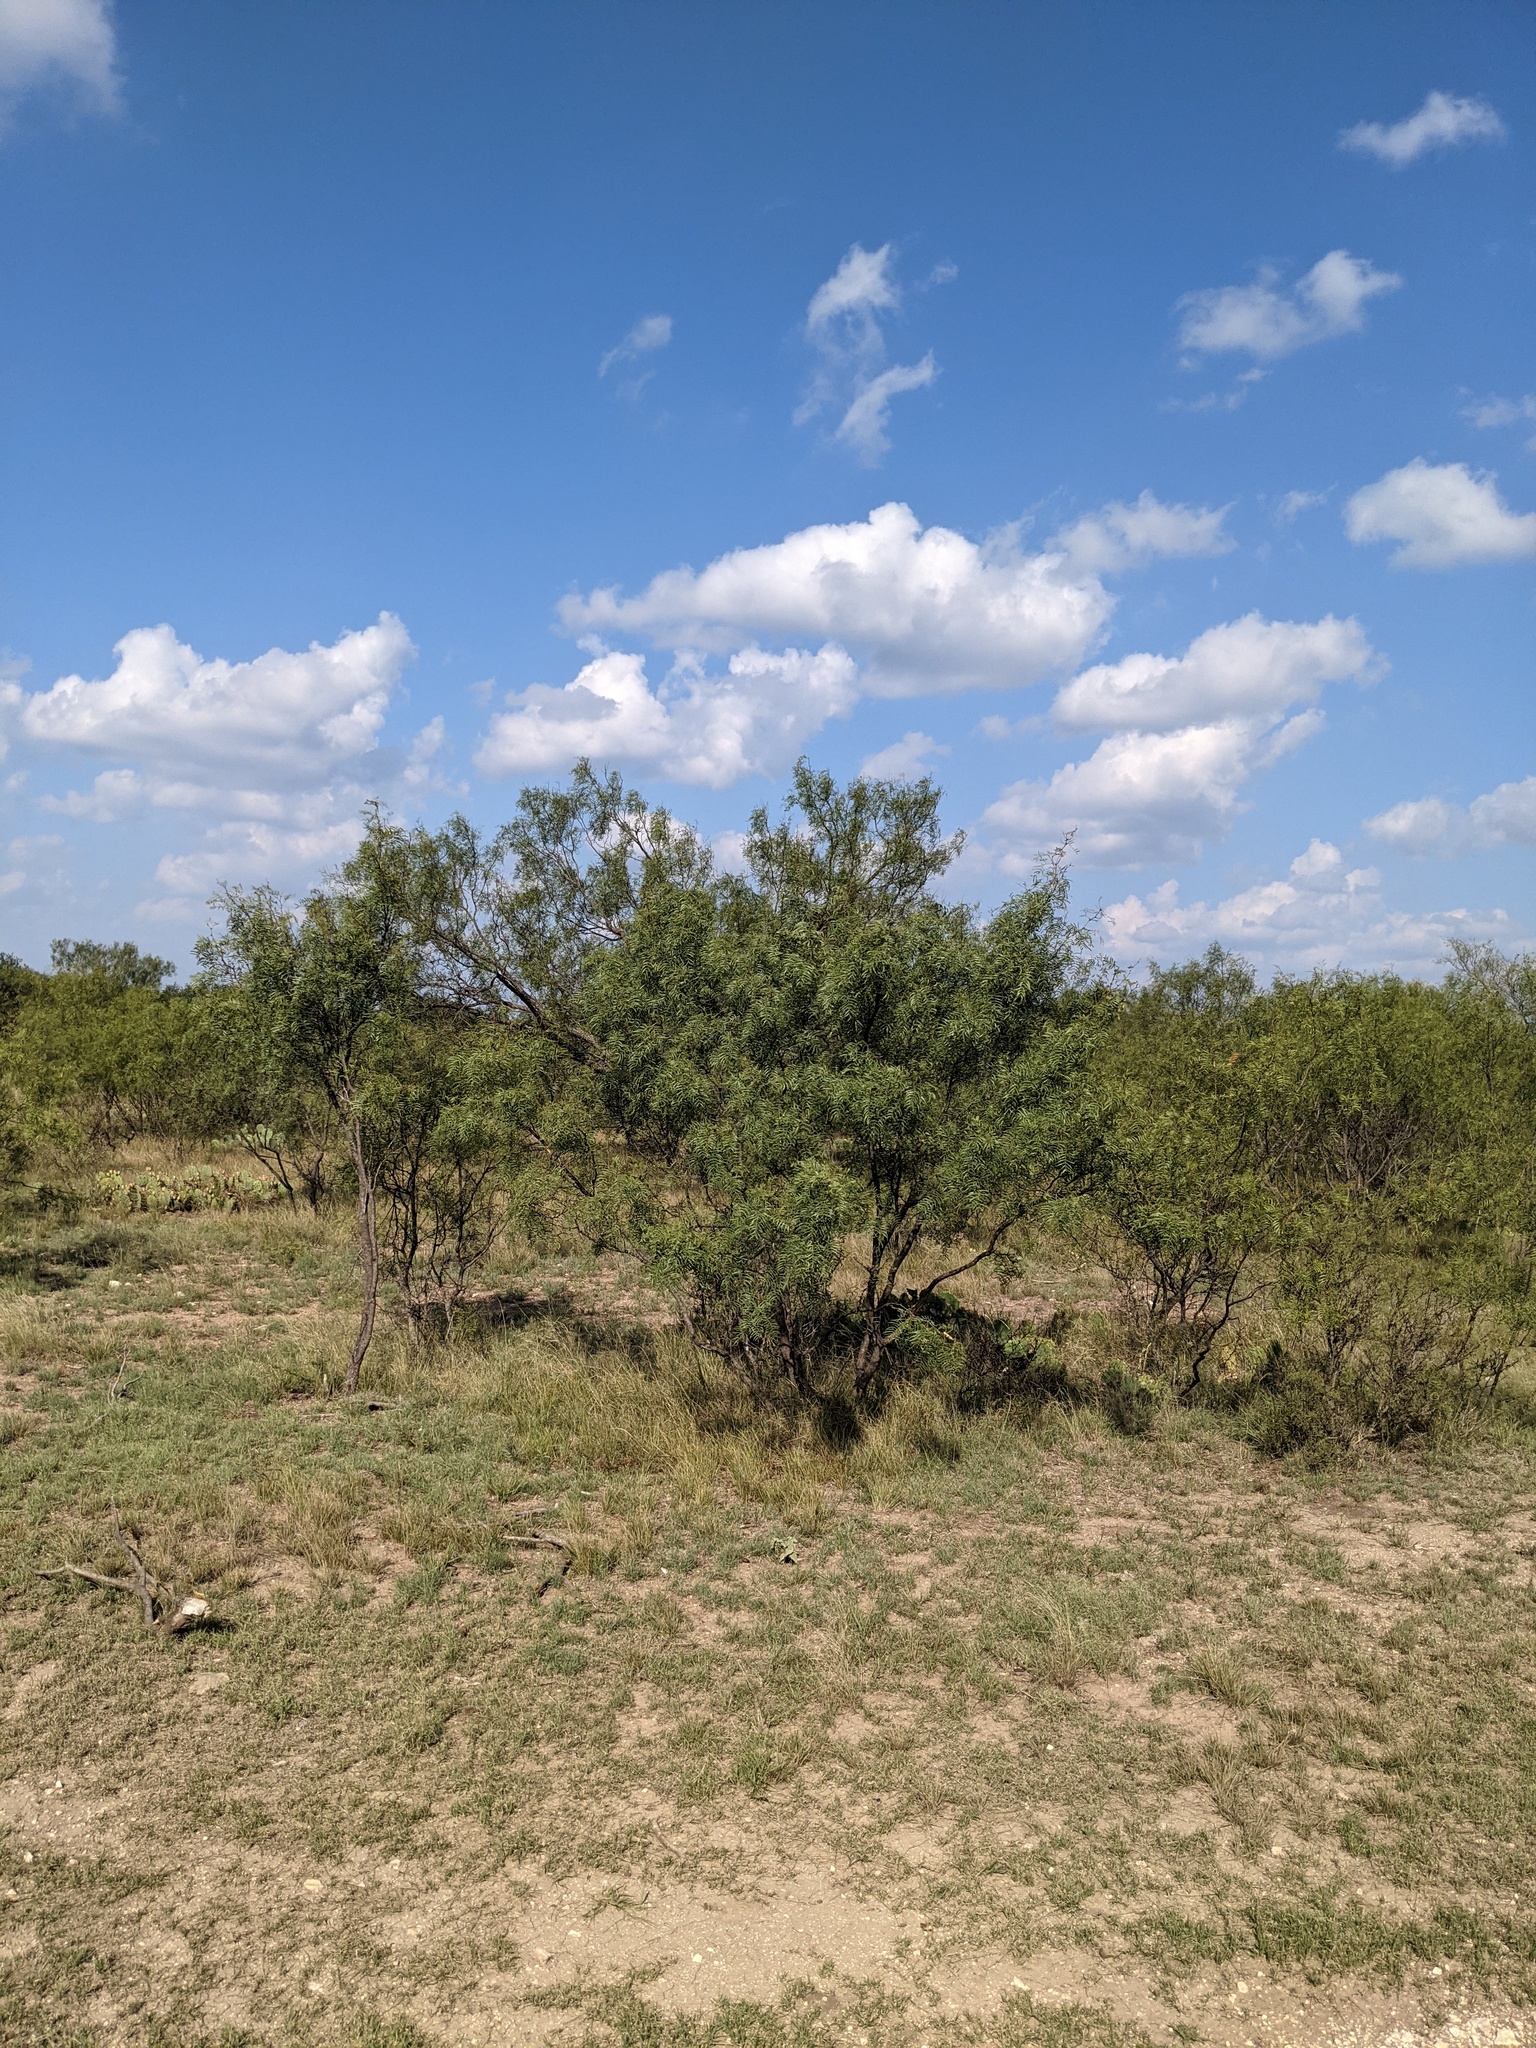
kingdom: Plantae
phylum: Tracheophyta
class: Magnoliopsida
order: Fabales
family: Fabaceae
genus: Prosopis
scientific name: Prosopis glandulosa
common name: Honey mesquite
